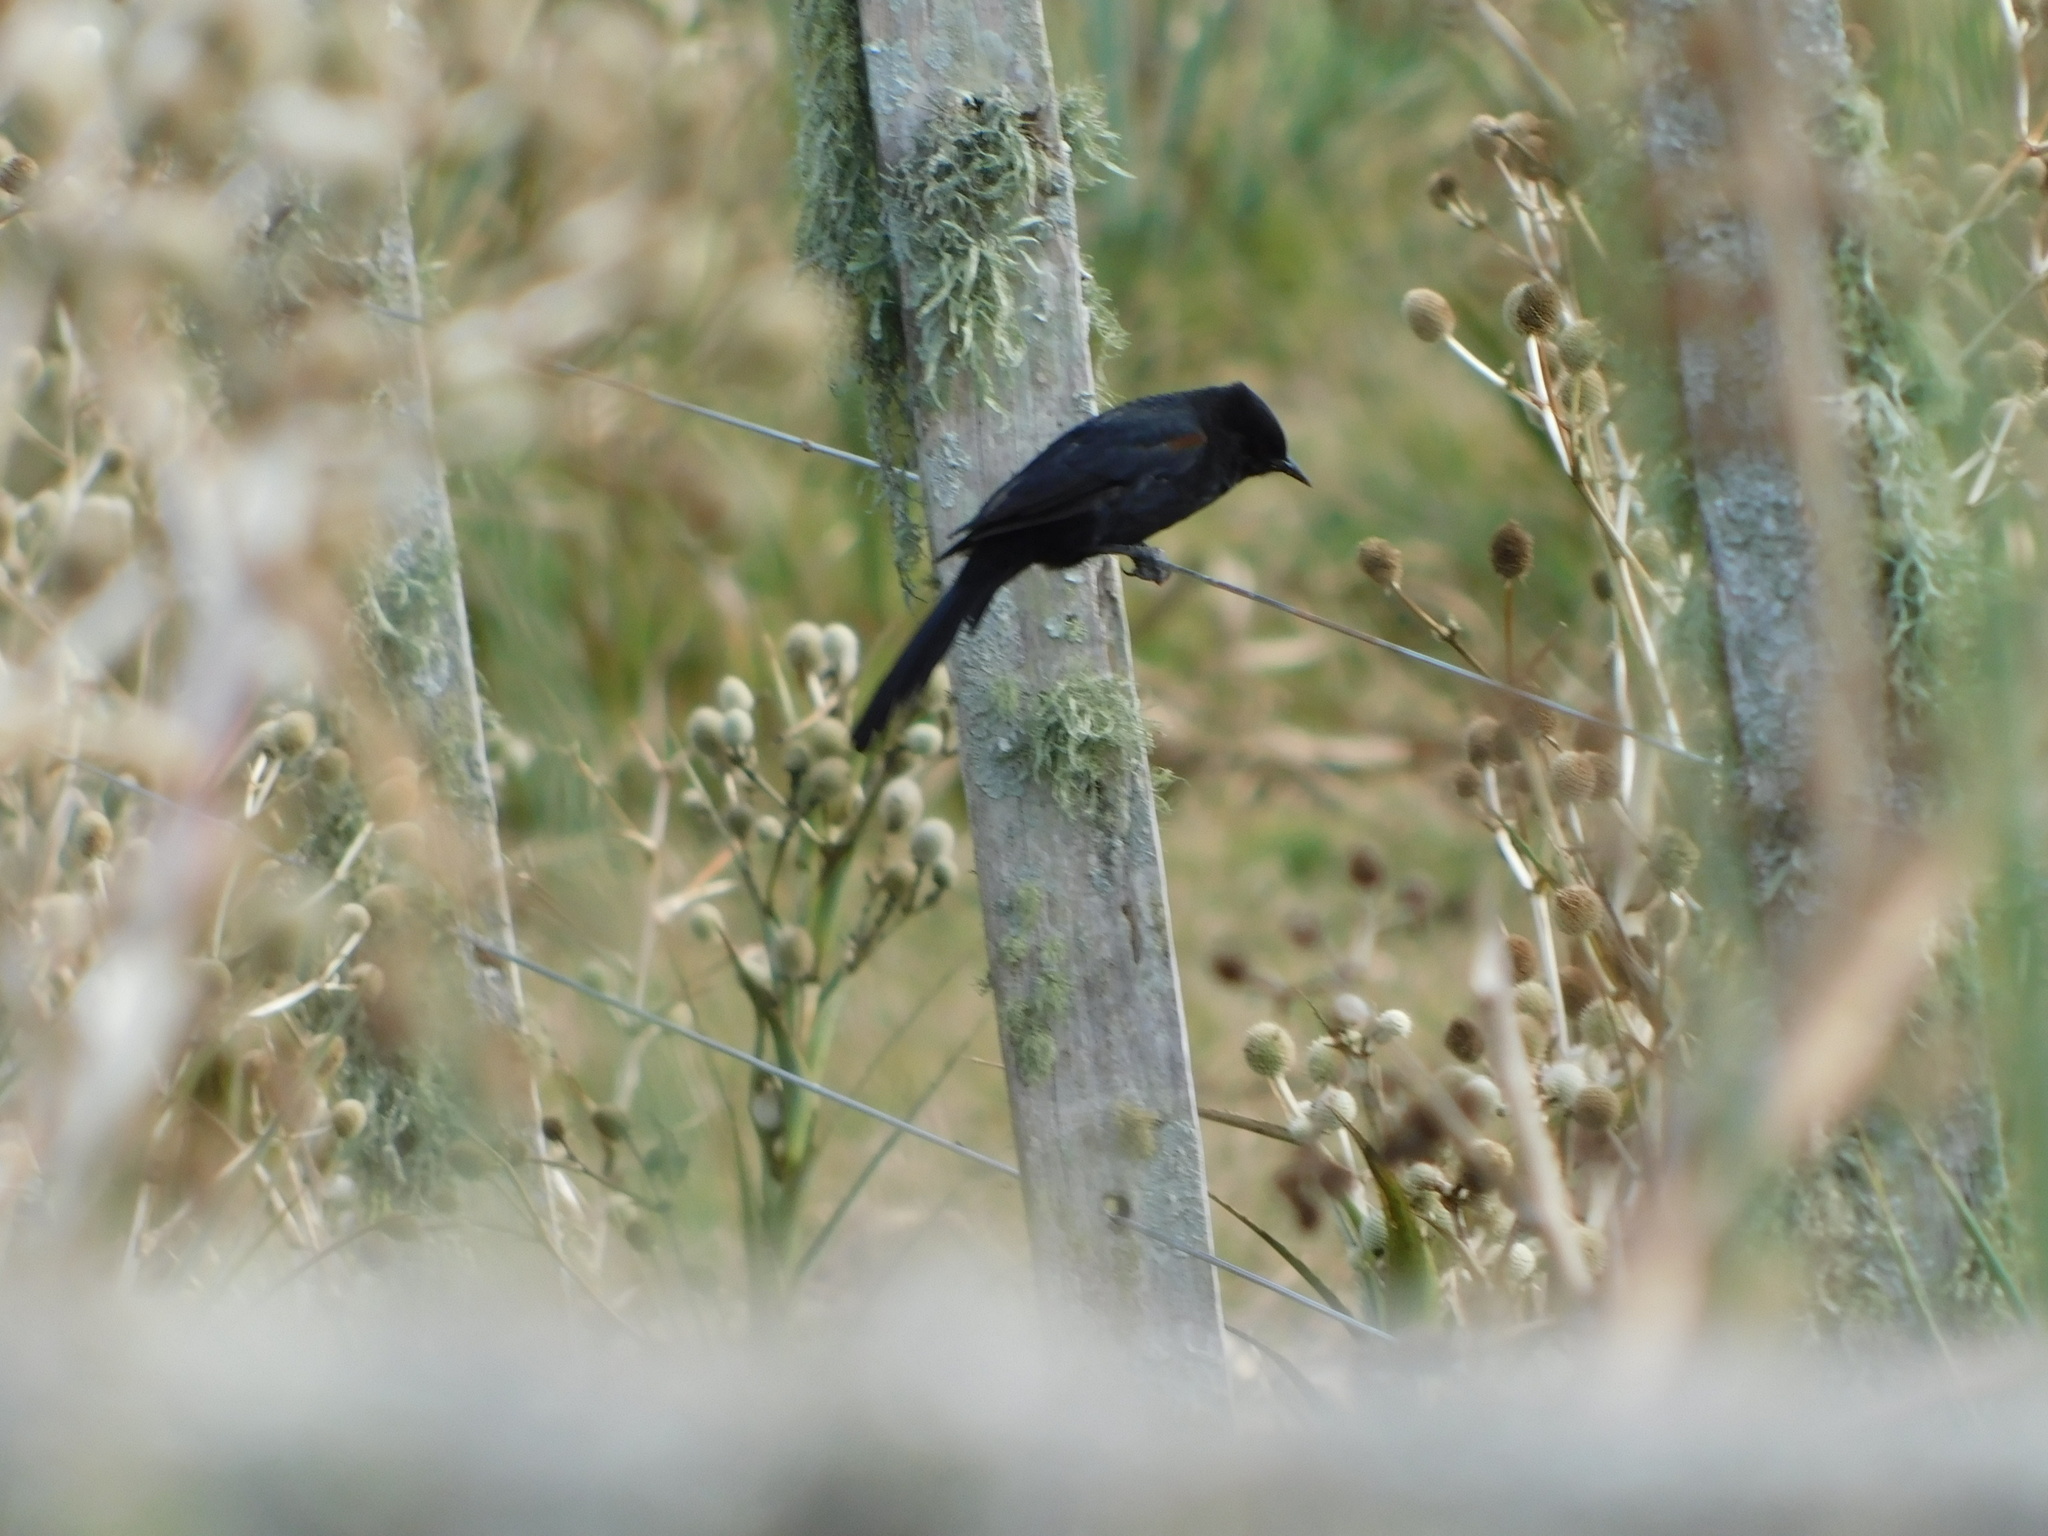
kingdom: Animalia
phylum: Chordata
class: Aves
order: Passeriformes
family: Icteridae
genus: Icterus
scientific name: Icterus cayanensis
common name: Epaulet oriole
